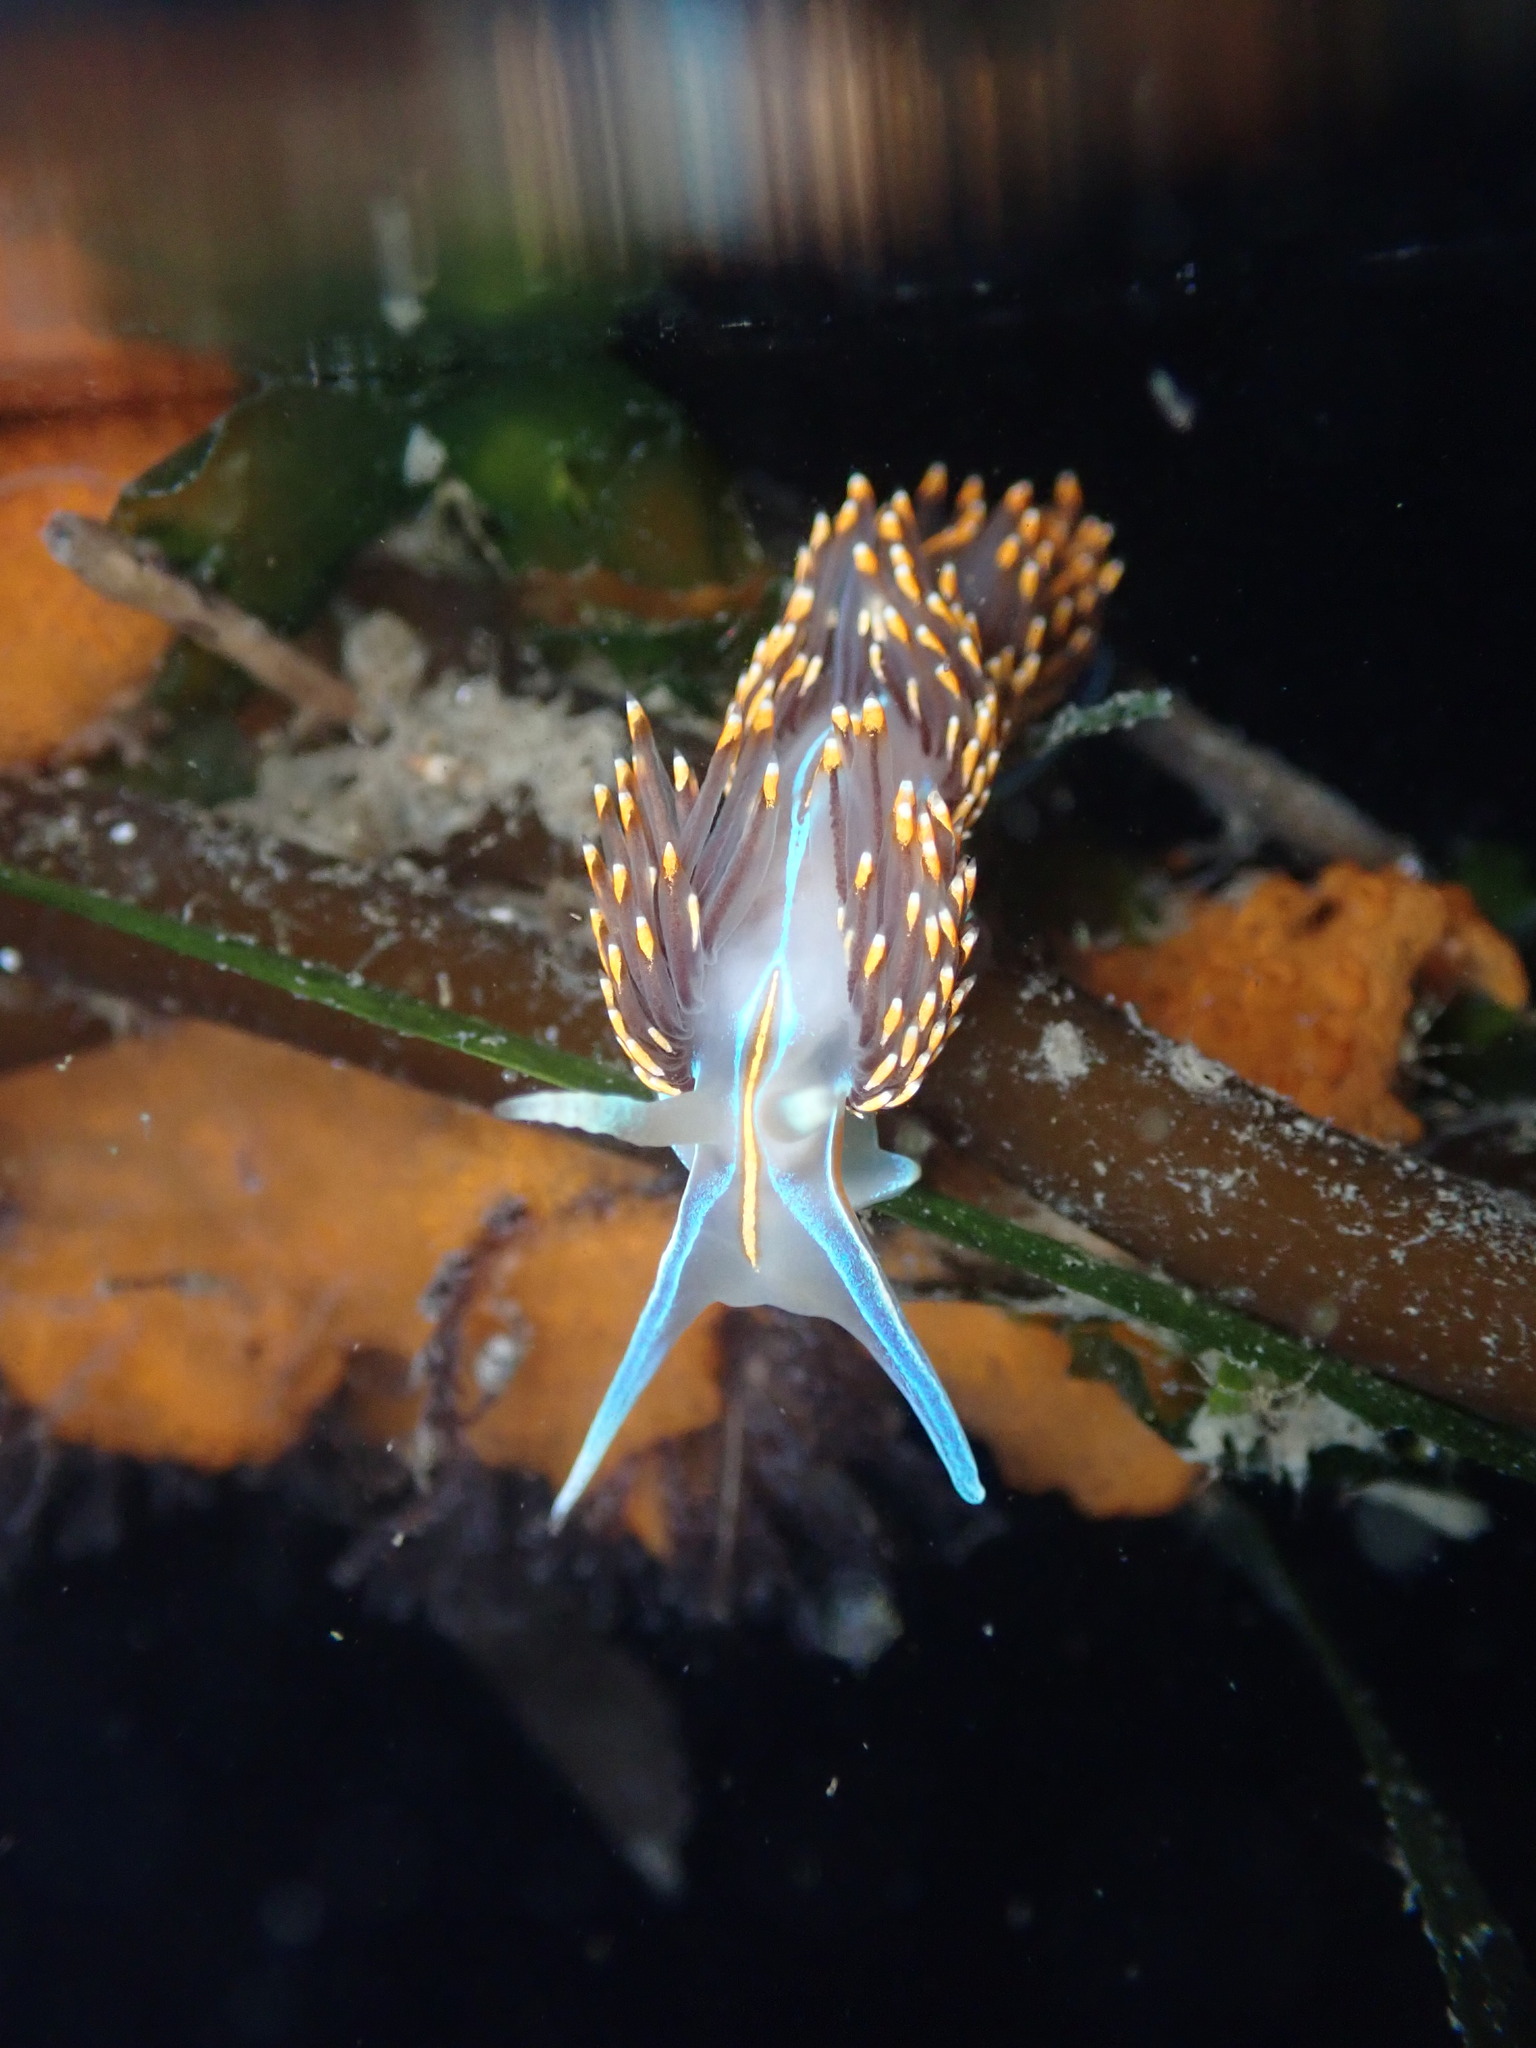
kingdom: Animalia
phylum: Mollusca
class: Gastropoda
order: Nudibranchia
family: Myrrhinidae
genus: Hermissenda
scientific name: Hermissenda opalescens
